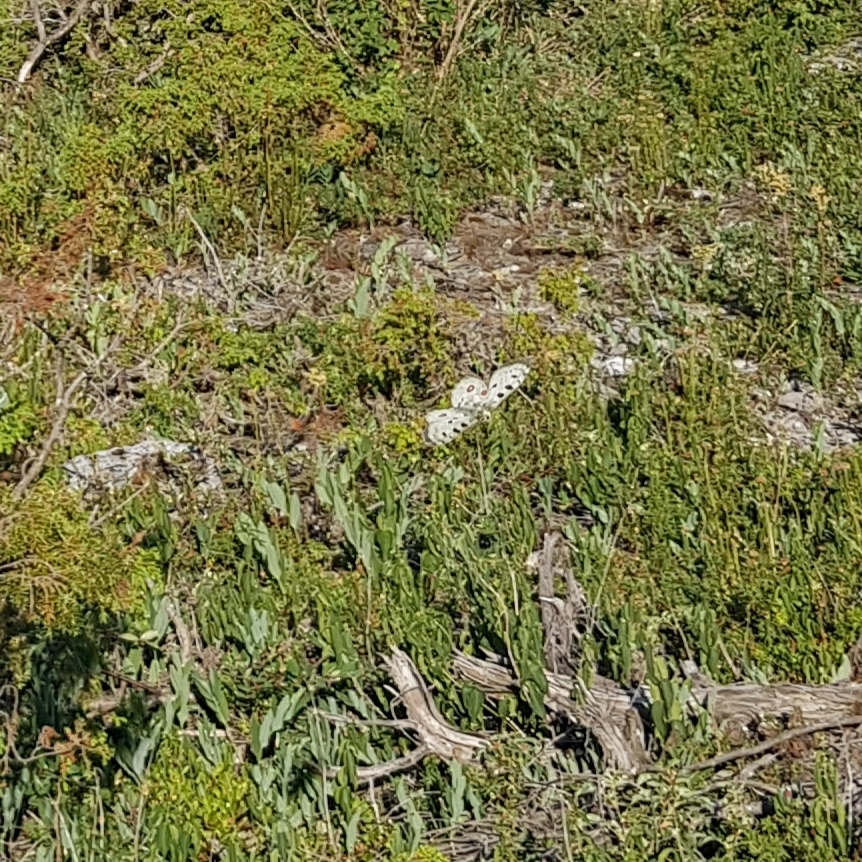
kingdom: Animalia
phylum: Arthropoda
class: Insecta
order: Lepidoptera
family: Papilionidae
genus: Parnassius
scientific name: Parnassius apollo
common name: Apollo
